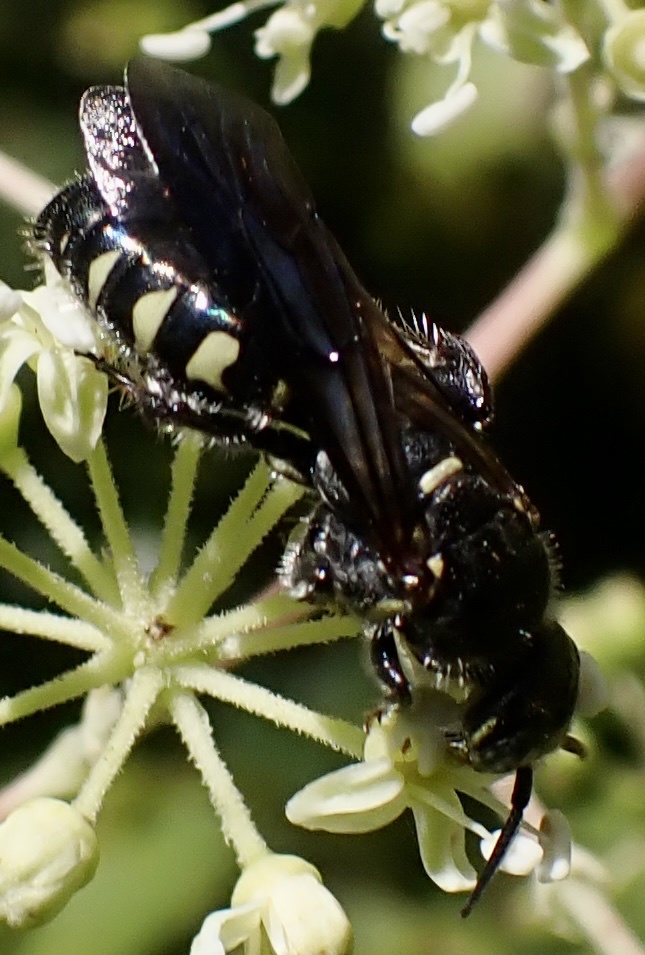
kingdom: Animalia
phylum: Arthropoda
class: Insecta
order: Hymenoptera
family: Tiphiidae
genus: Myzinum
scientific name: Myzinum obscurum
